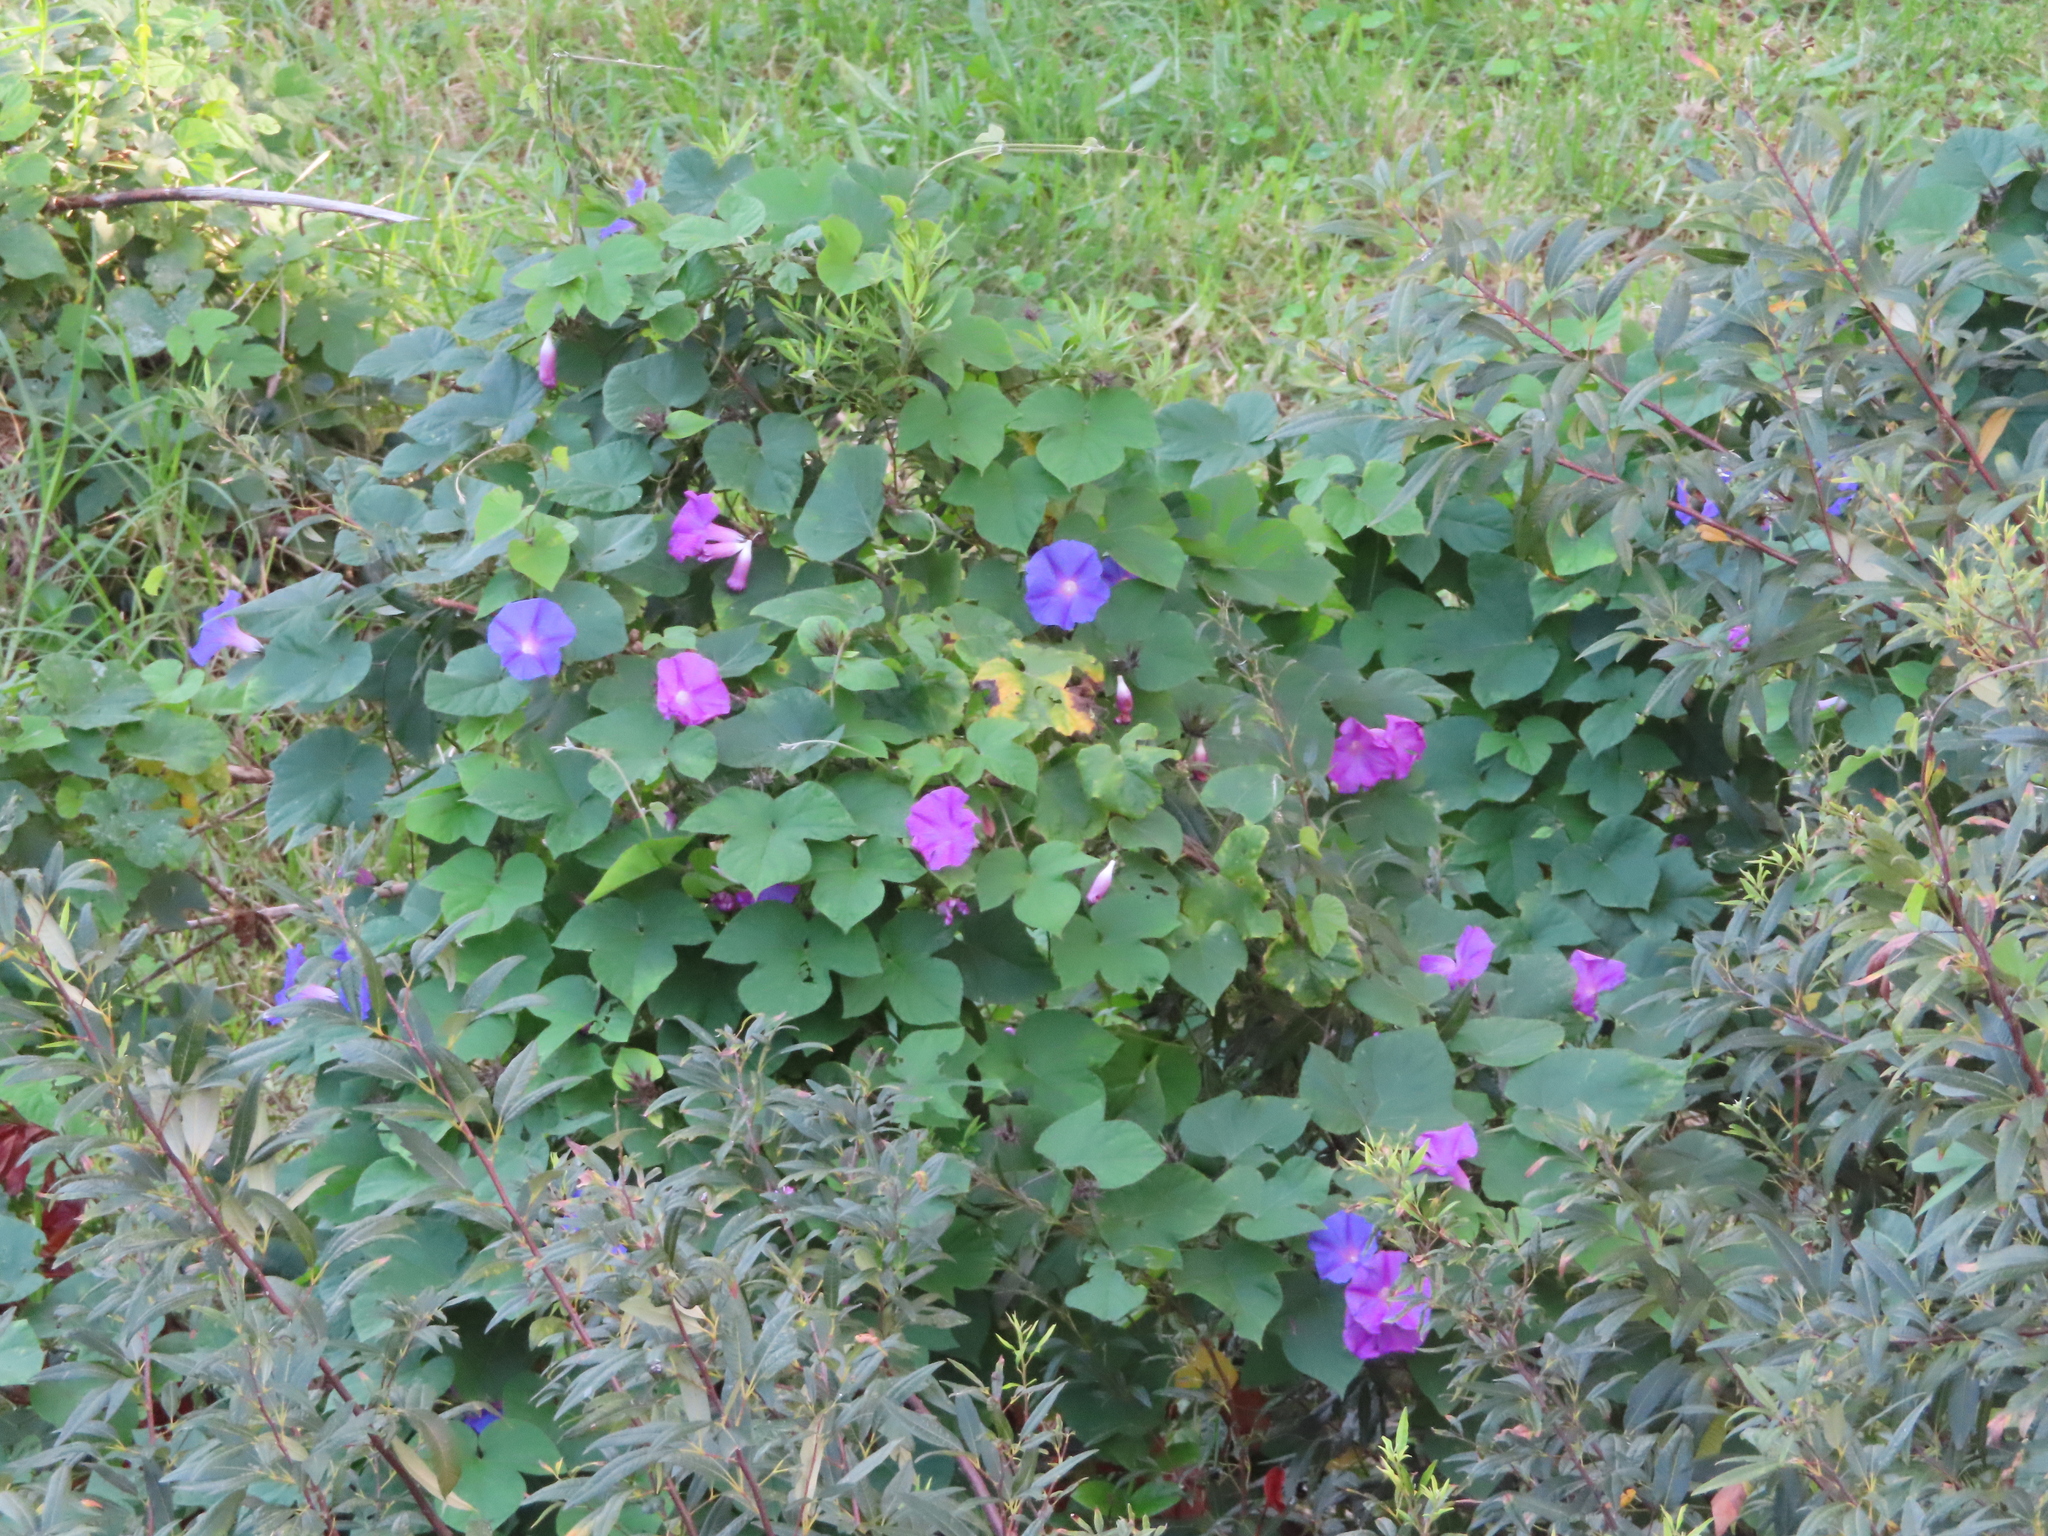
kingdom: Plantae
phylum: Tracheophyta
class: Magnoliopsida
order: Solanales
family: Convolvulaceae
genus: Ipomoea
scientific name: Ipomoea indica
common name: Blue dawnflower
